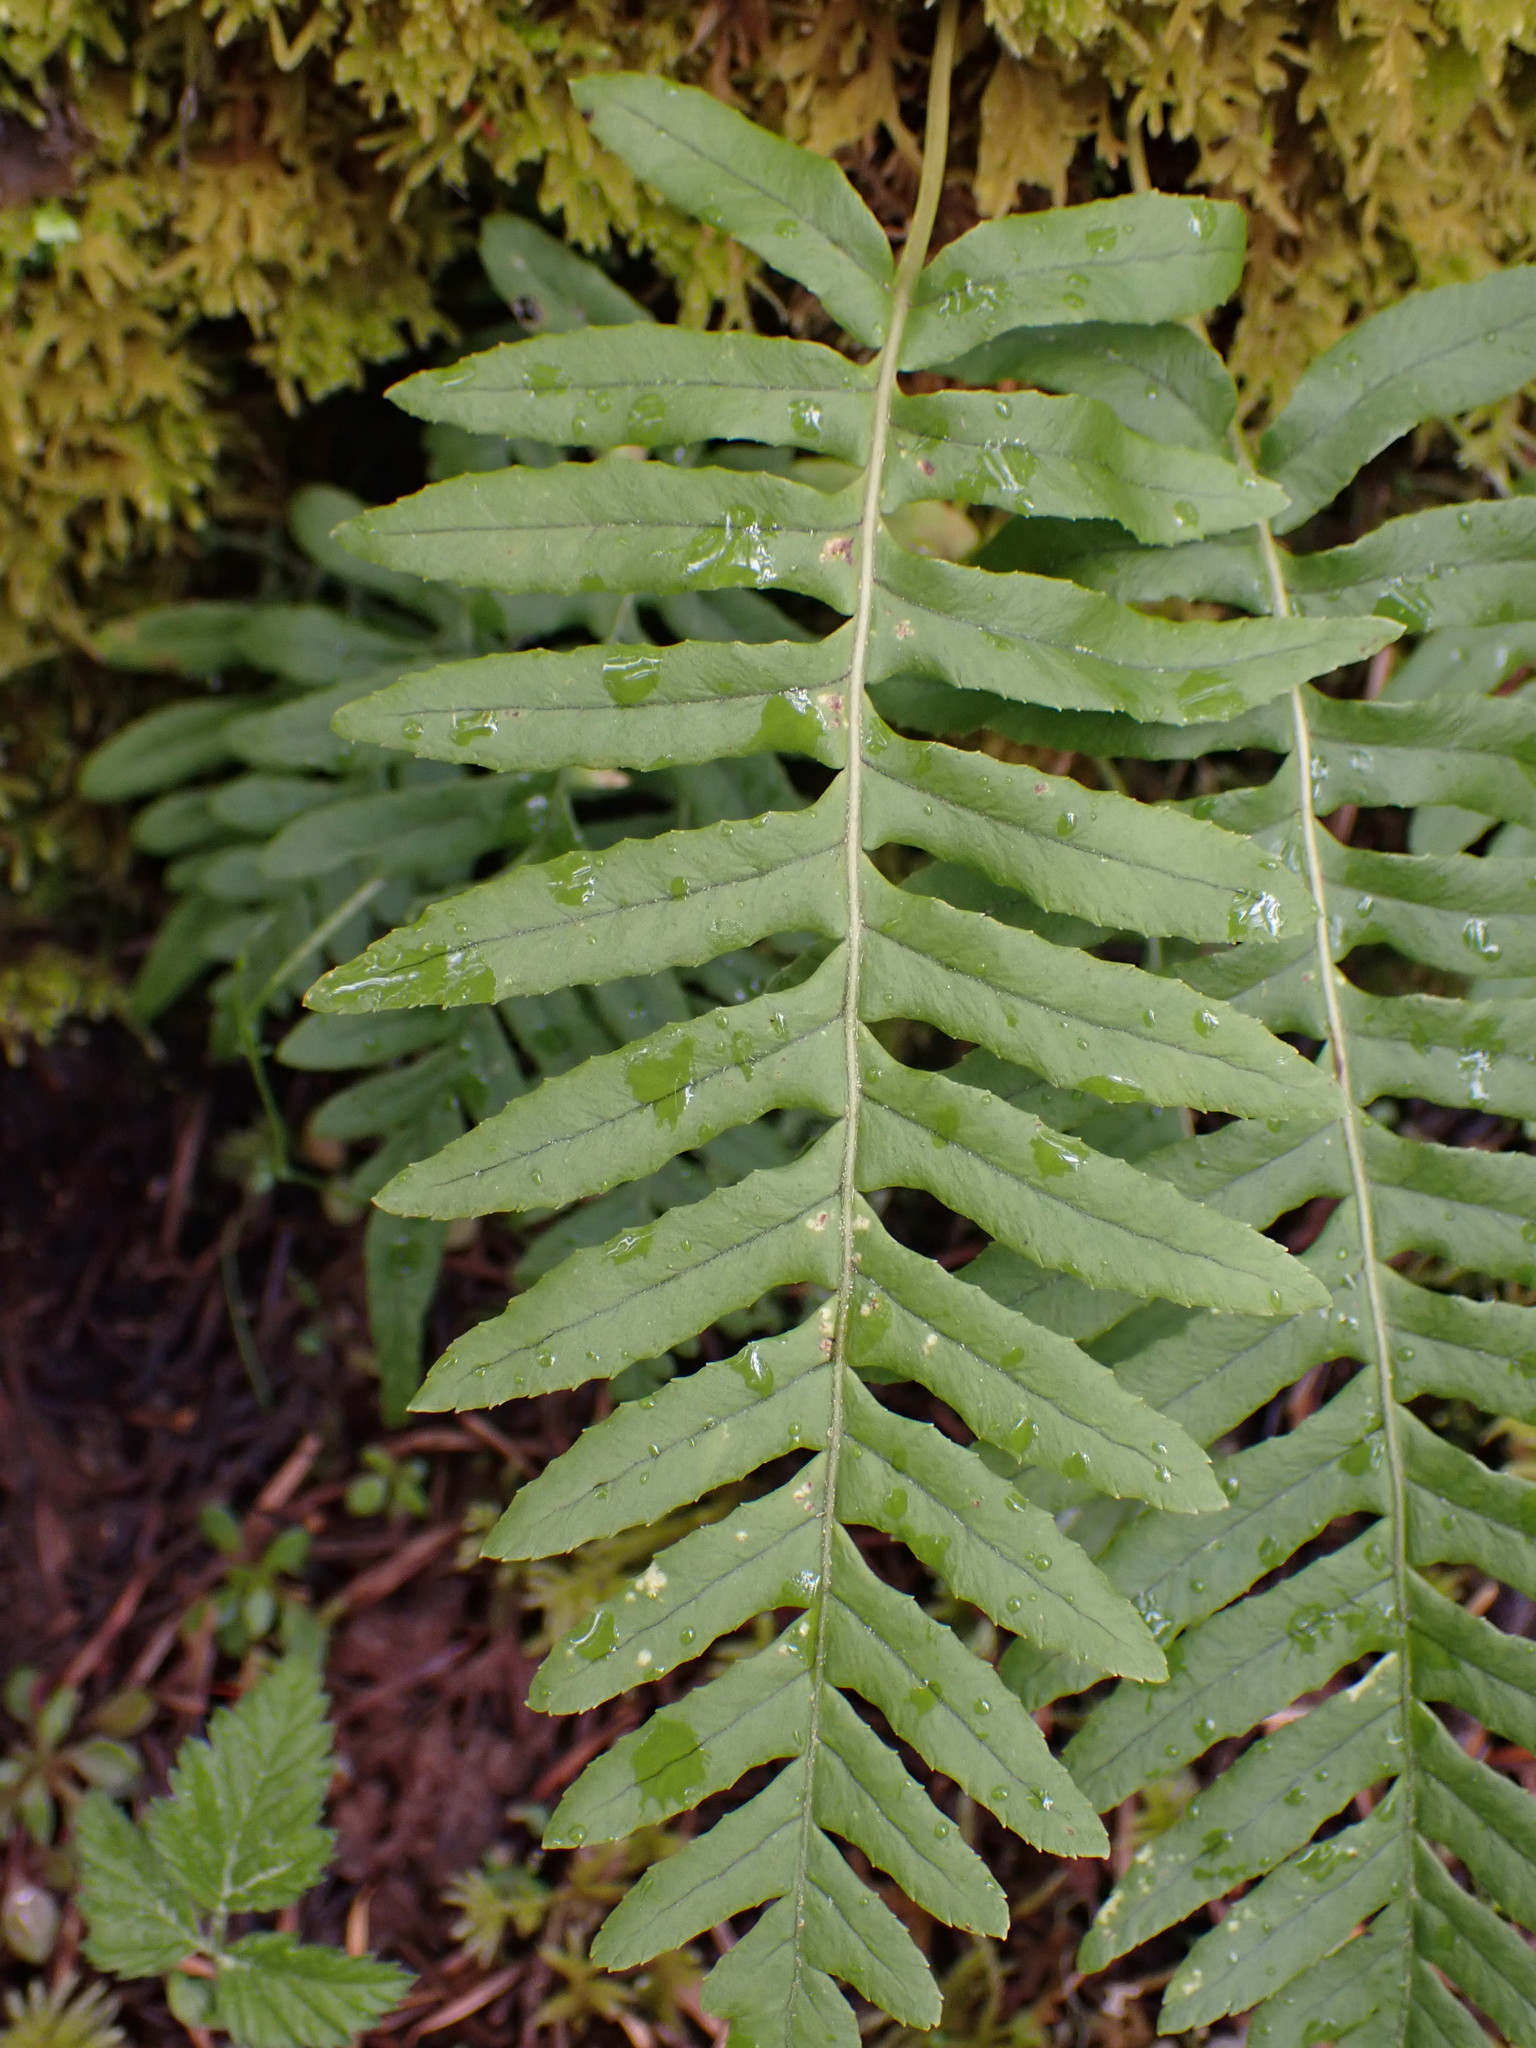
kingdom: Plantae
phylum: Tracheophyta
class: Polypodiopsida
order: Polypodiales
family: Polypodiaceae
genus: Polypodium
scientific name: Polypodium glycyrrhiza
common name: Licorice fern
